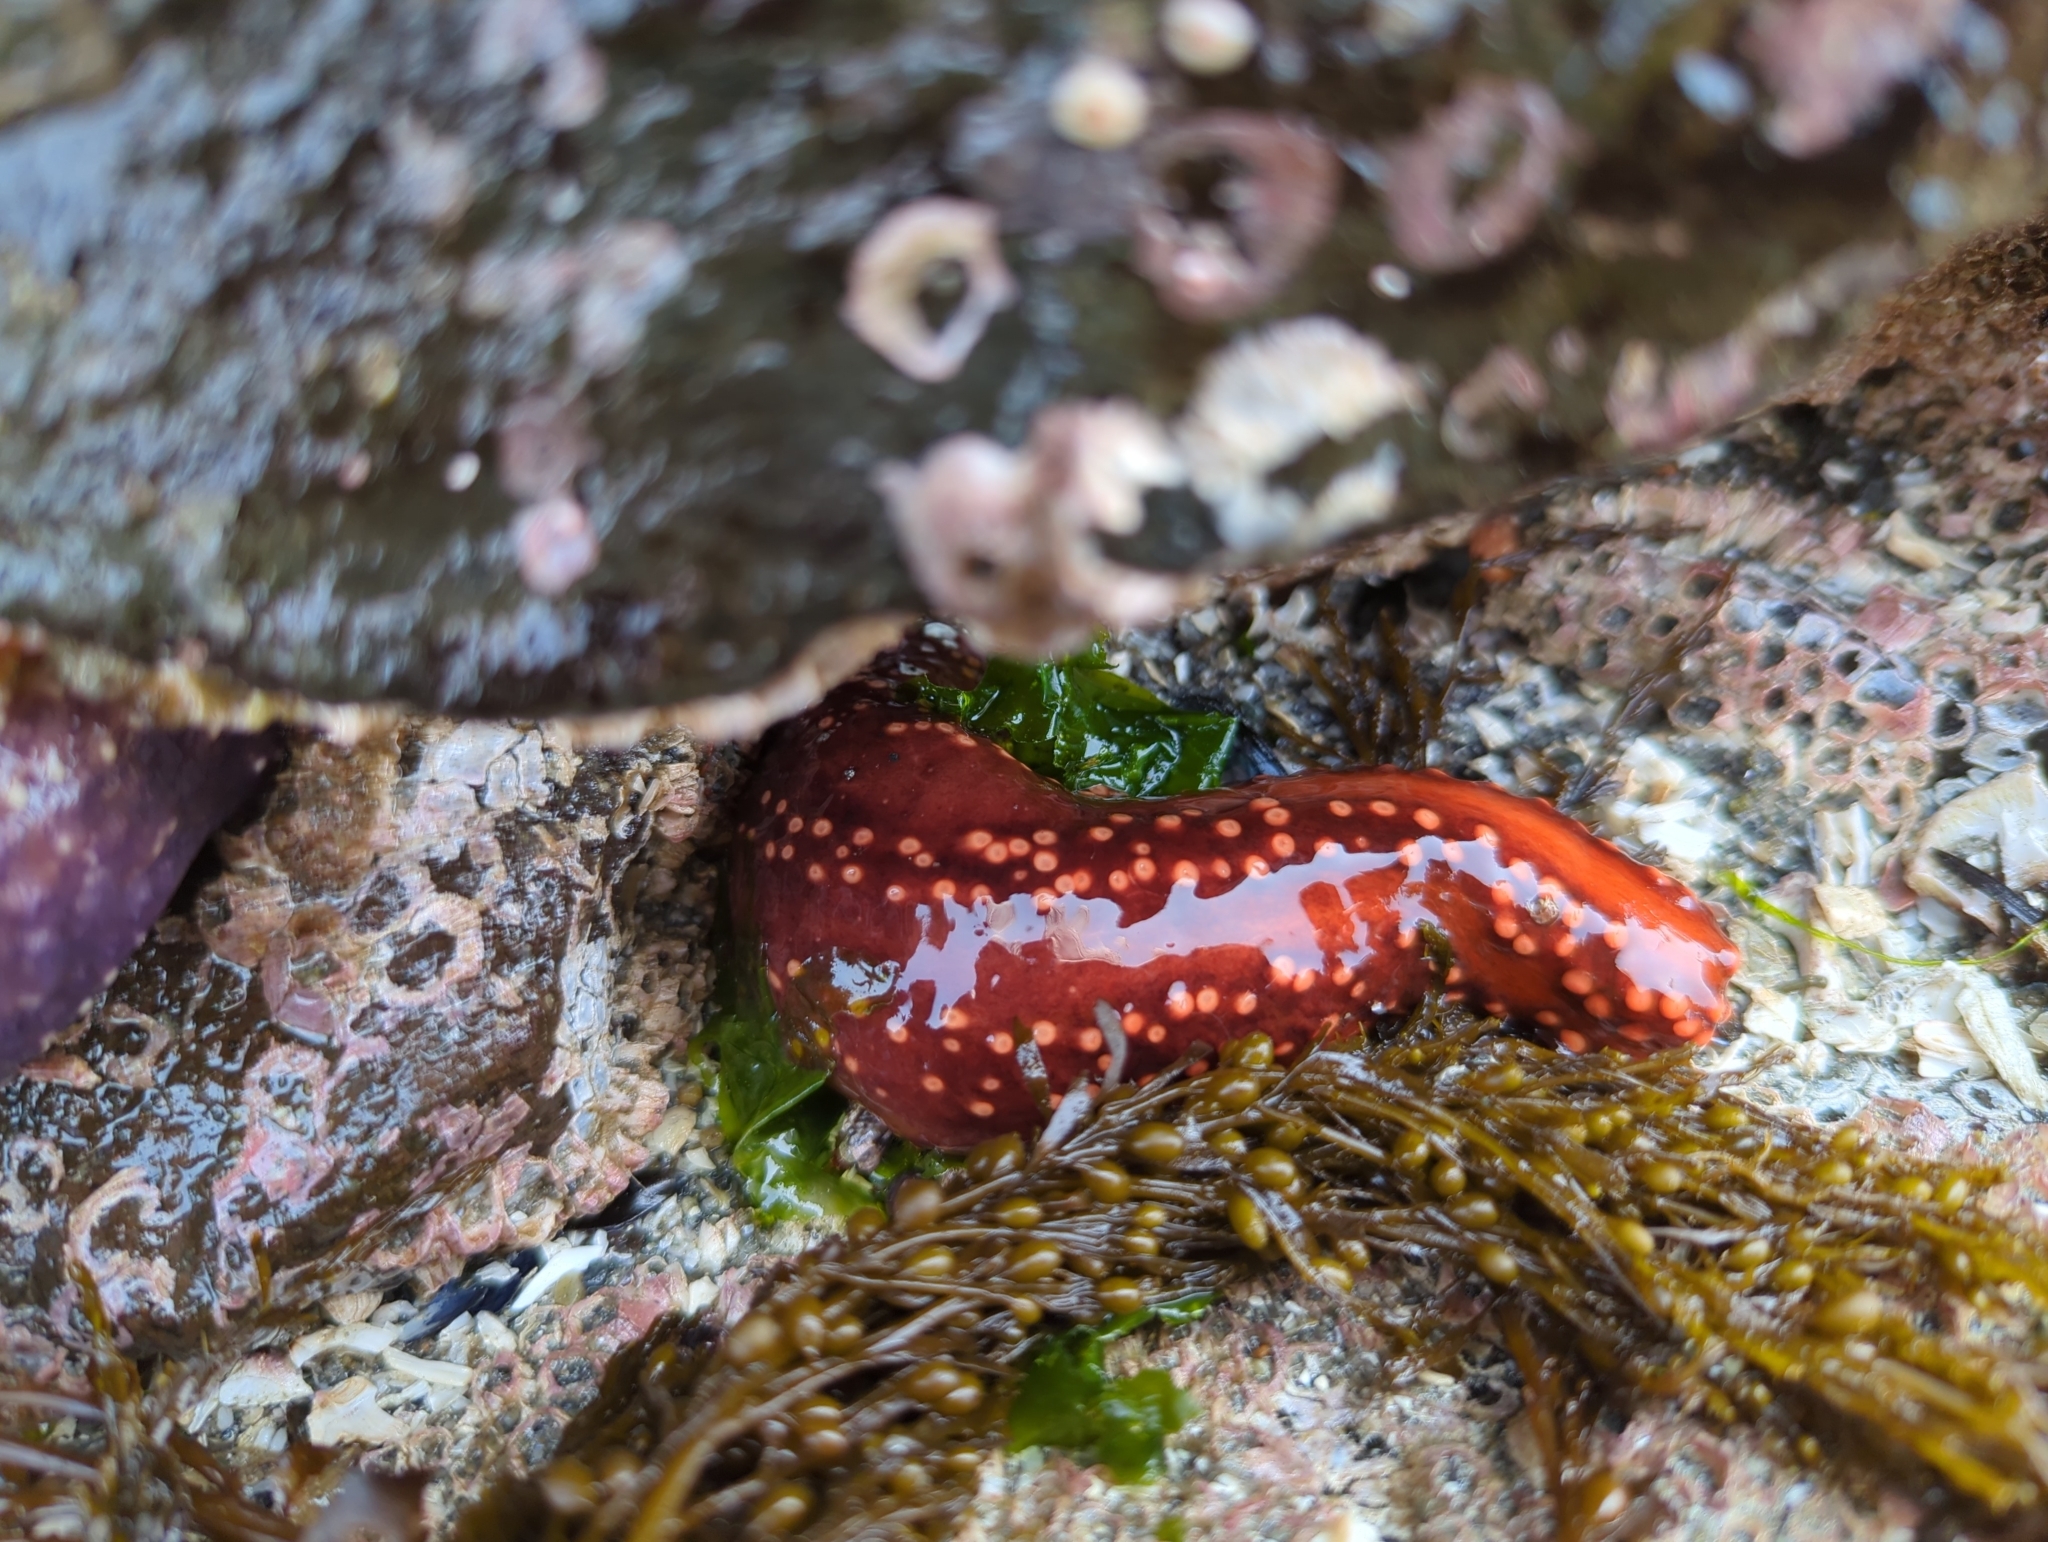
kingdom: Animalia
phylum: Echinodermata
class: Holothuroidea
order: Dendrochirotida
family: Cucumariidae
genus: Cucumaria
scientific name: Cucumaria miniata
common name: Orange sea cucumber
